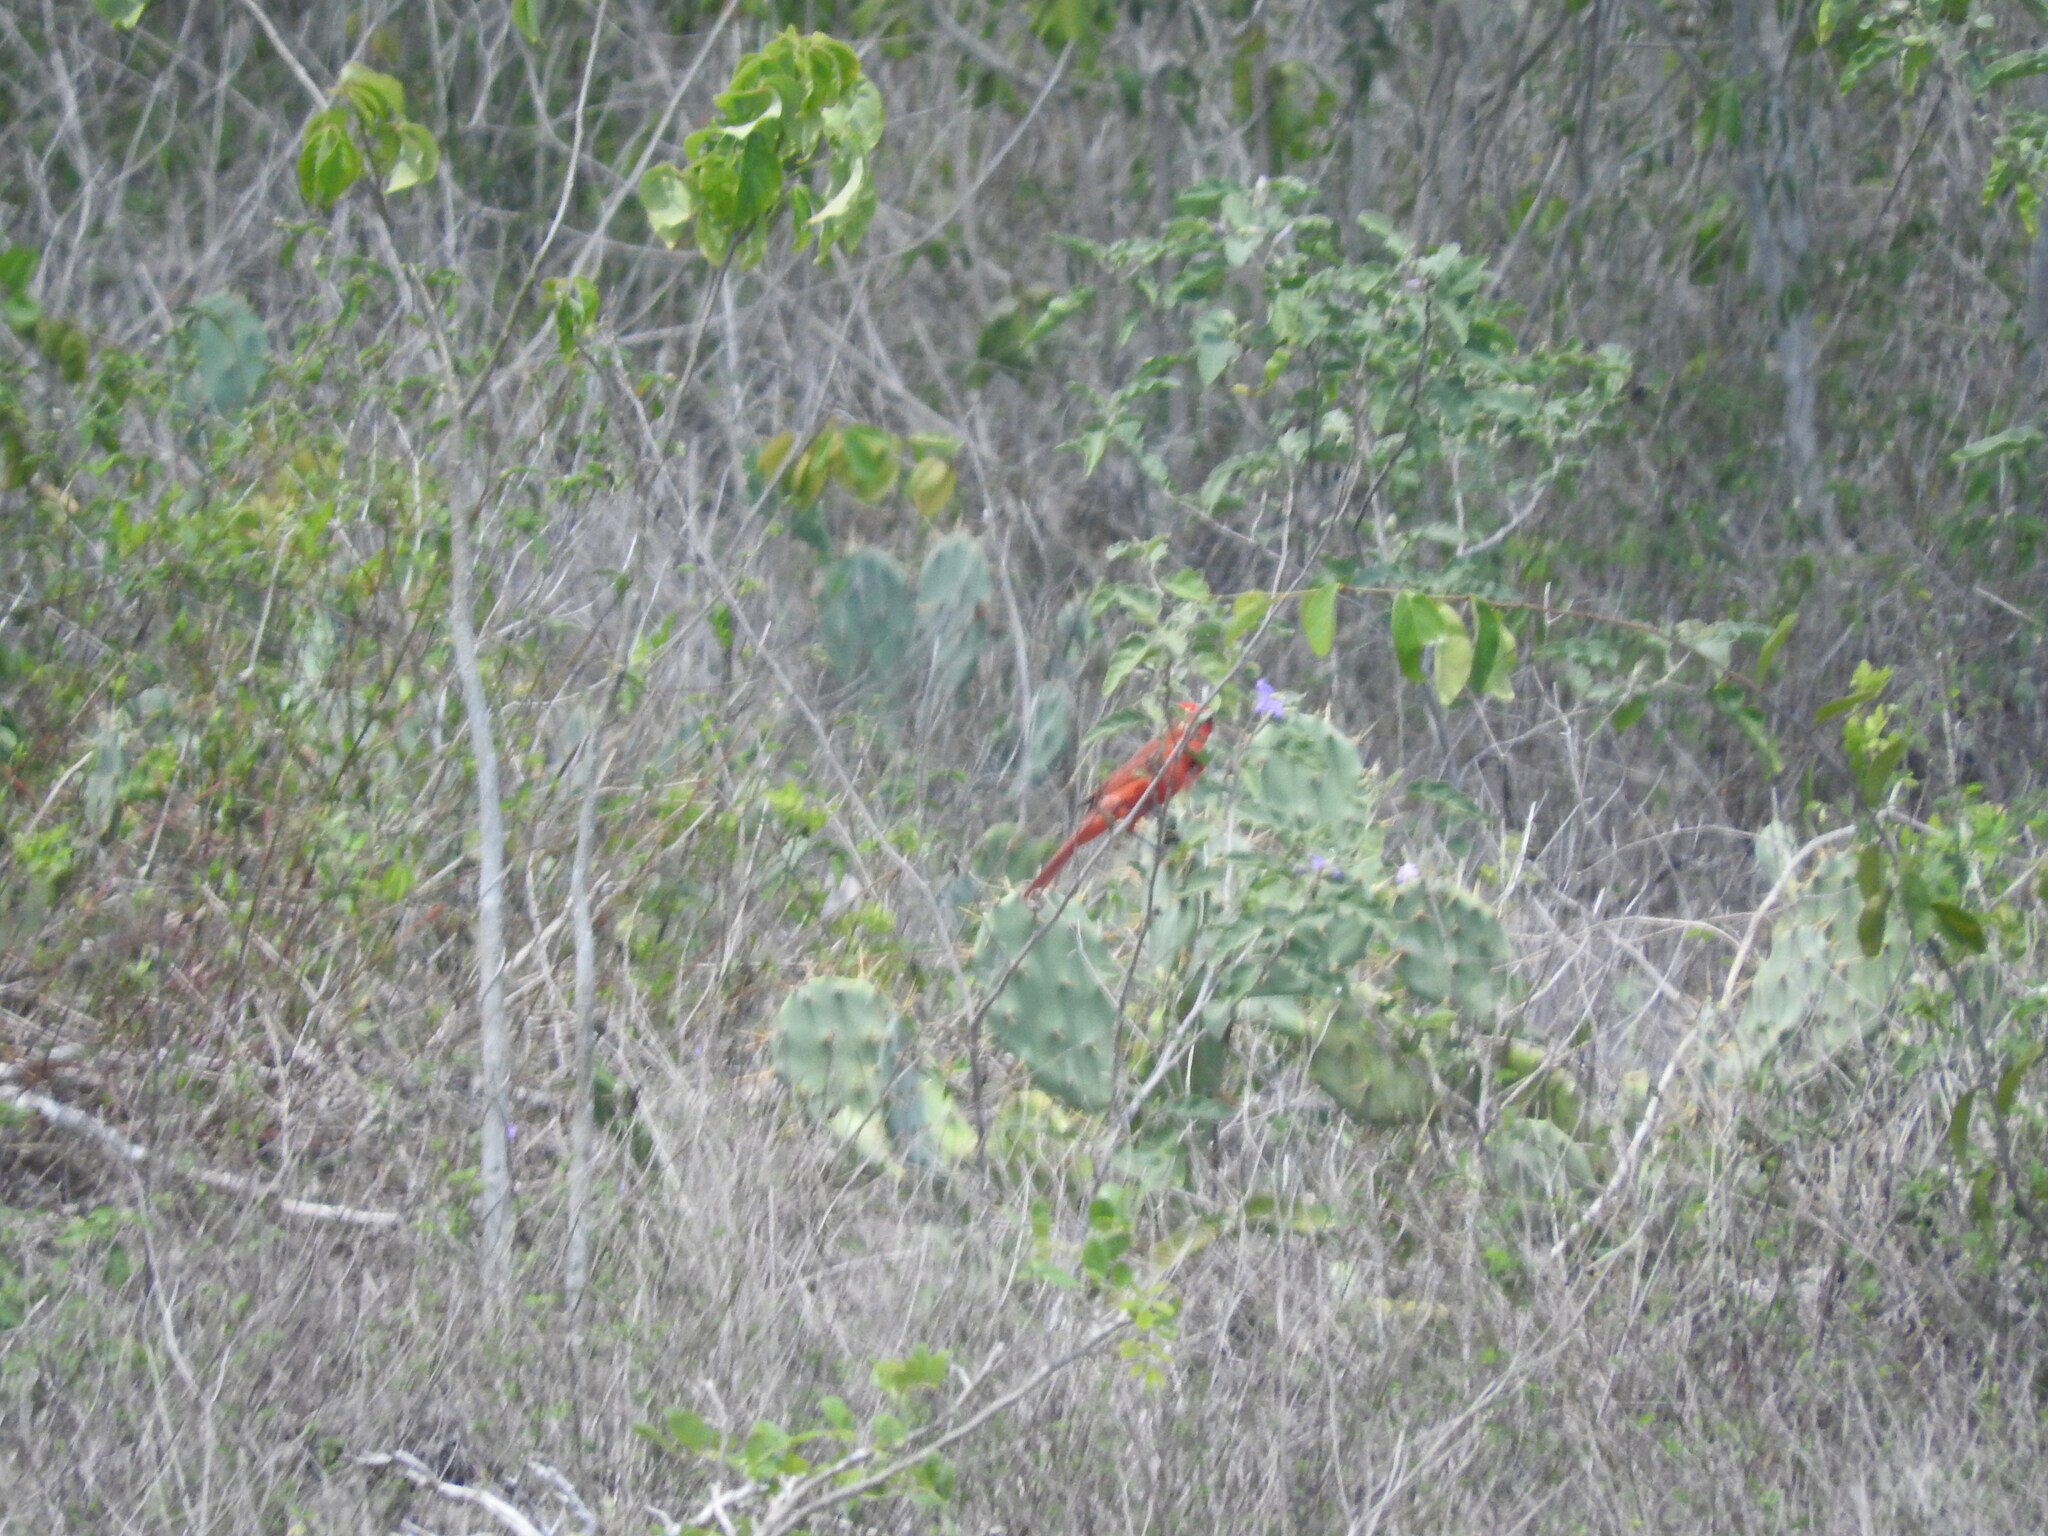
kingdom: Animalia
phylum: Chordata
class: Aves
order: Passeriformes
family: Cardinalidae
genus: Cardinalis
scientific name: Cardinalis cardinalis
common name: Northern cardinal
